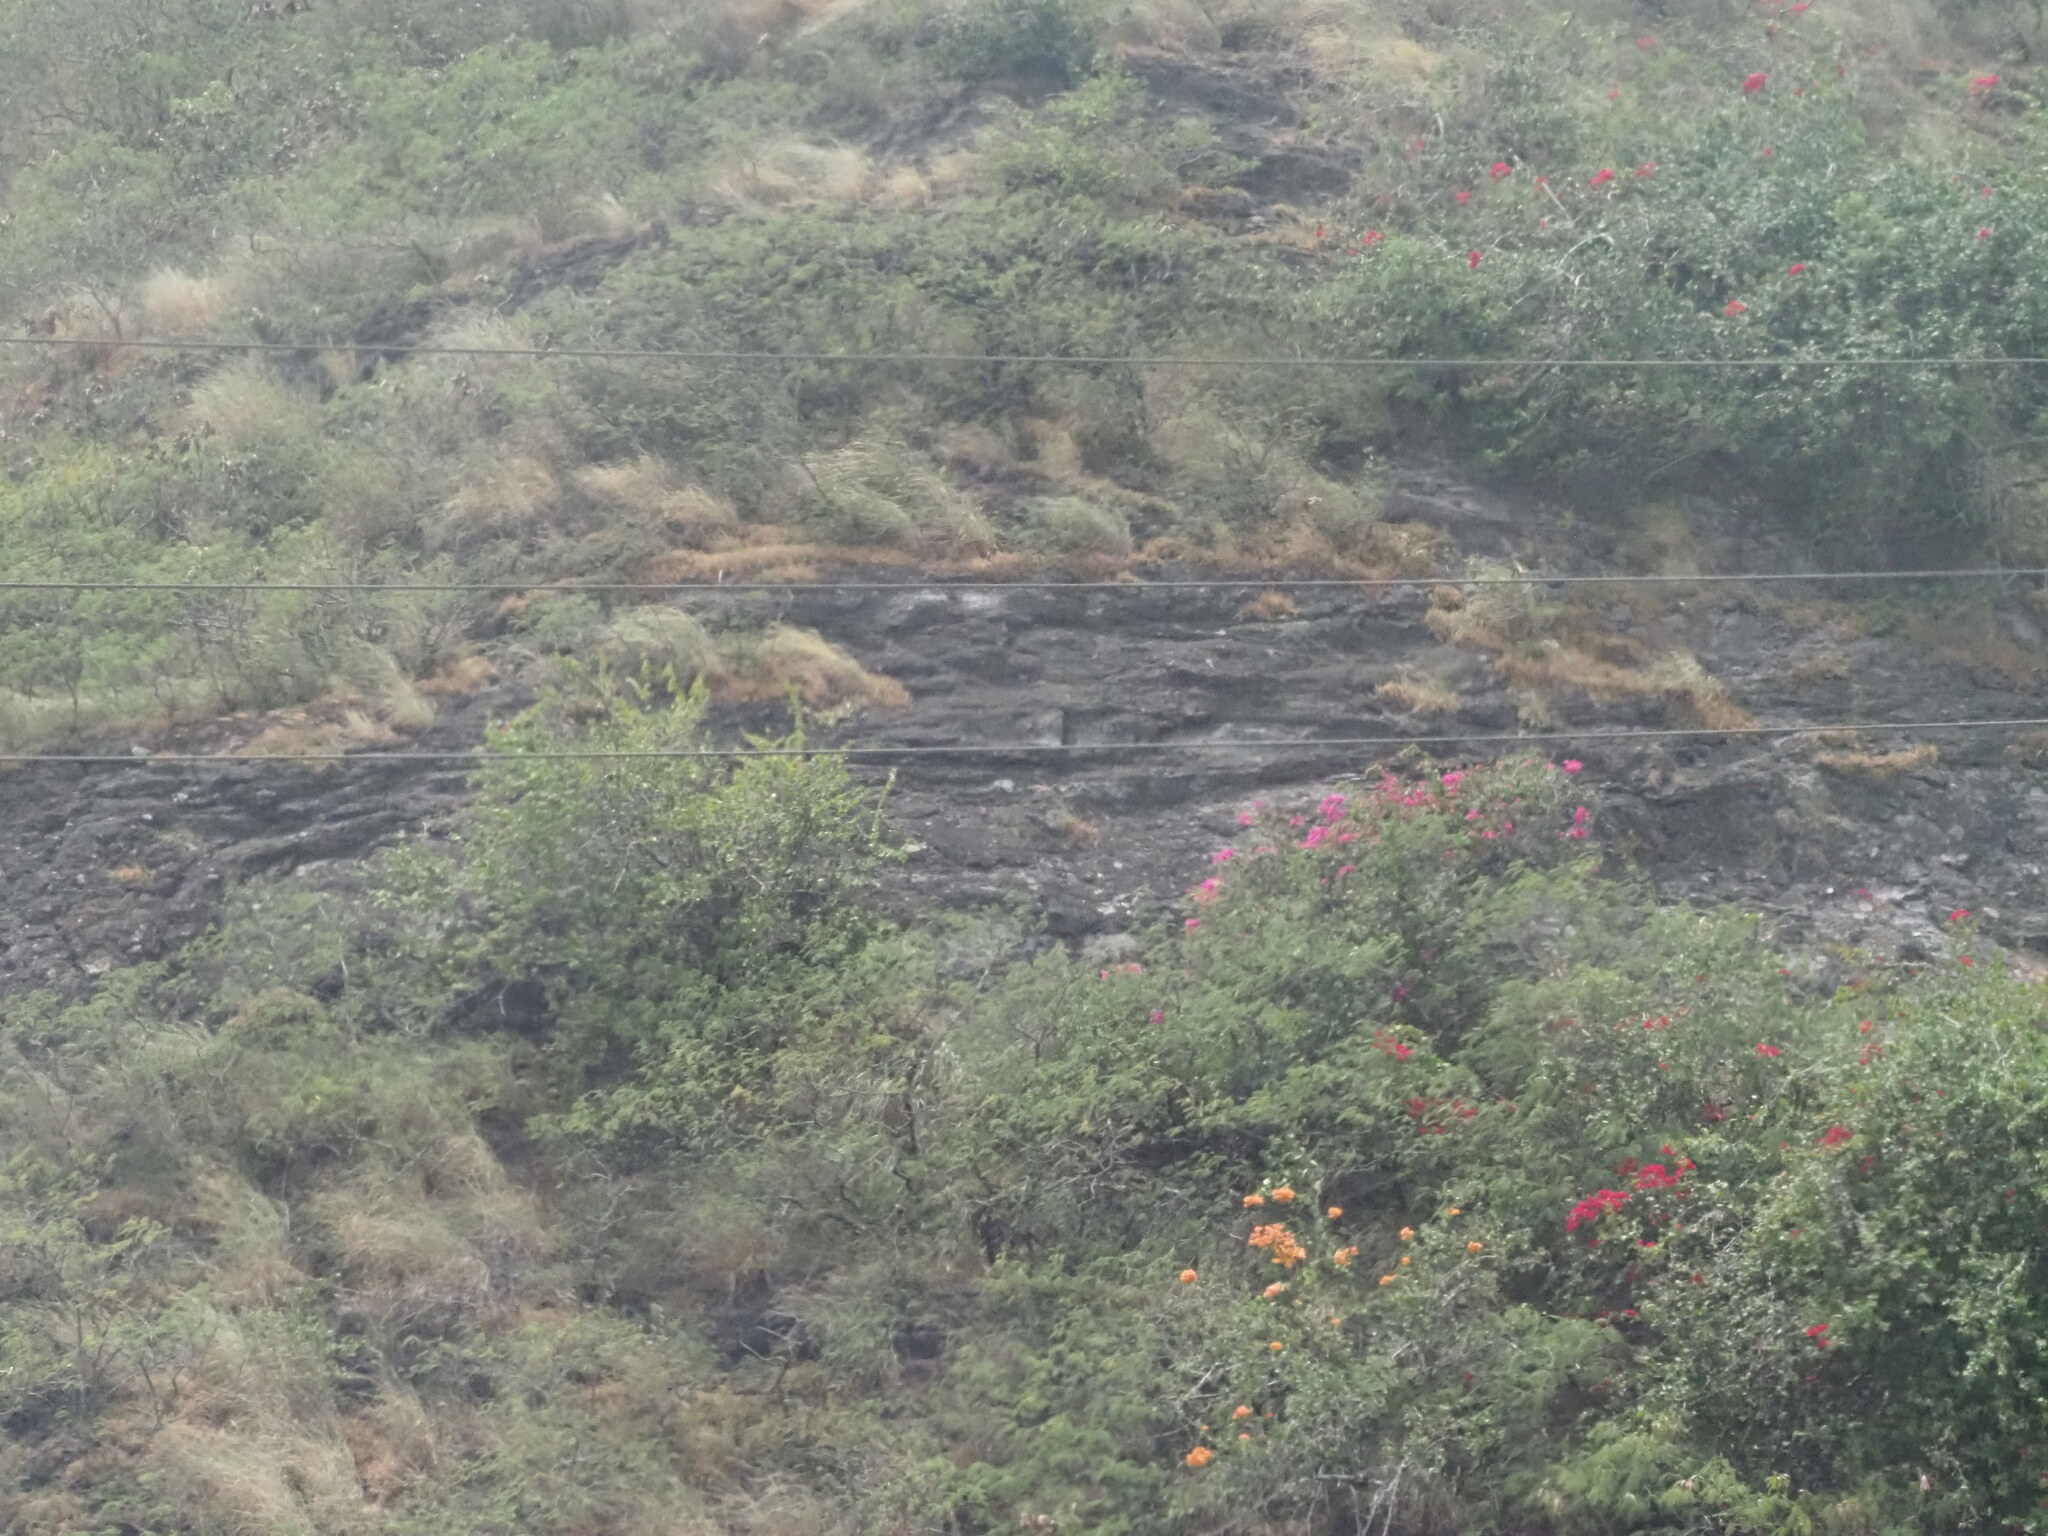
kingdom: Plantae
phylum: Tracheophyta
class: Magnoliopsida
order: Lamiales
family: Lamiaceae
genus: Coleus
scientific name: Coleus prostratus
